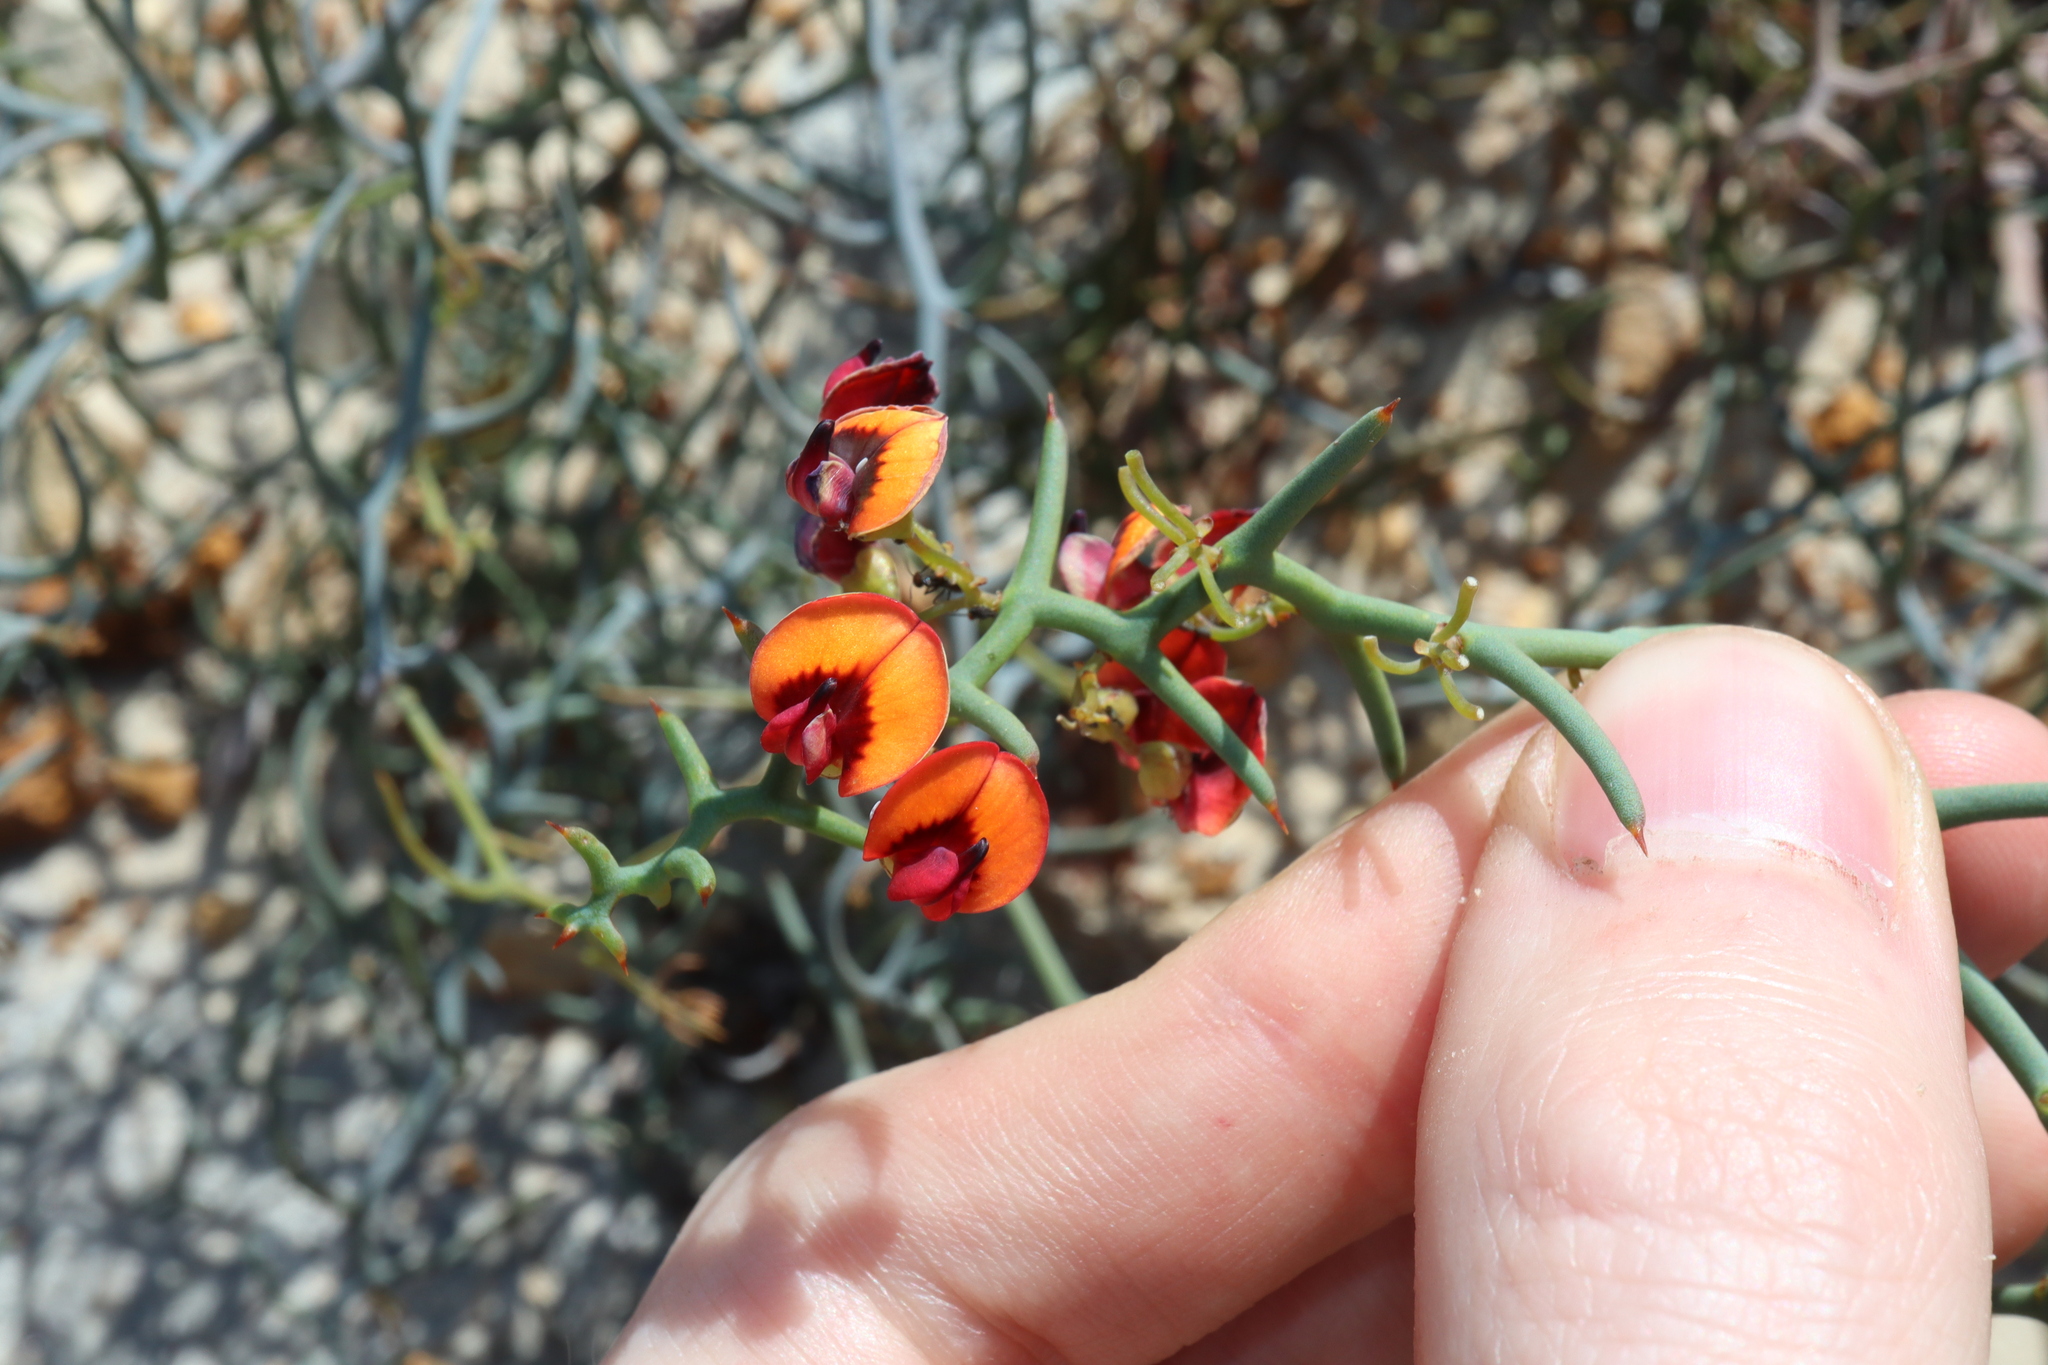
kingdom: Plantae
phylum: Tracheophyta
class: Magnoliopsida
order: Fabales
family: Fabaceae
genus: Daviesia
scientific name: Daviesia incrassata
